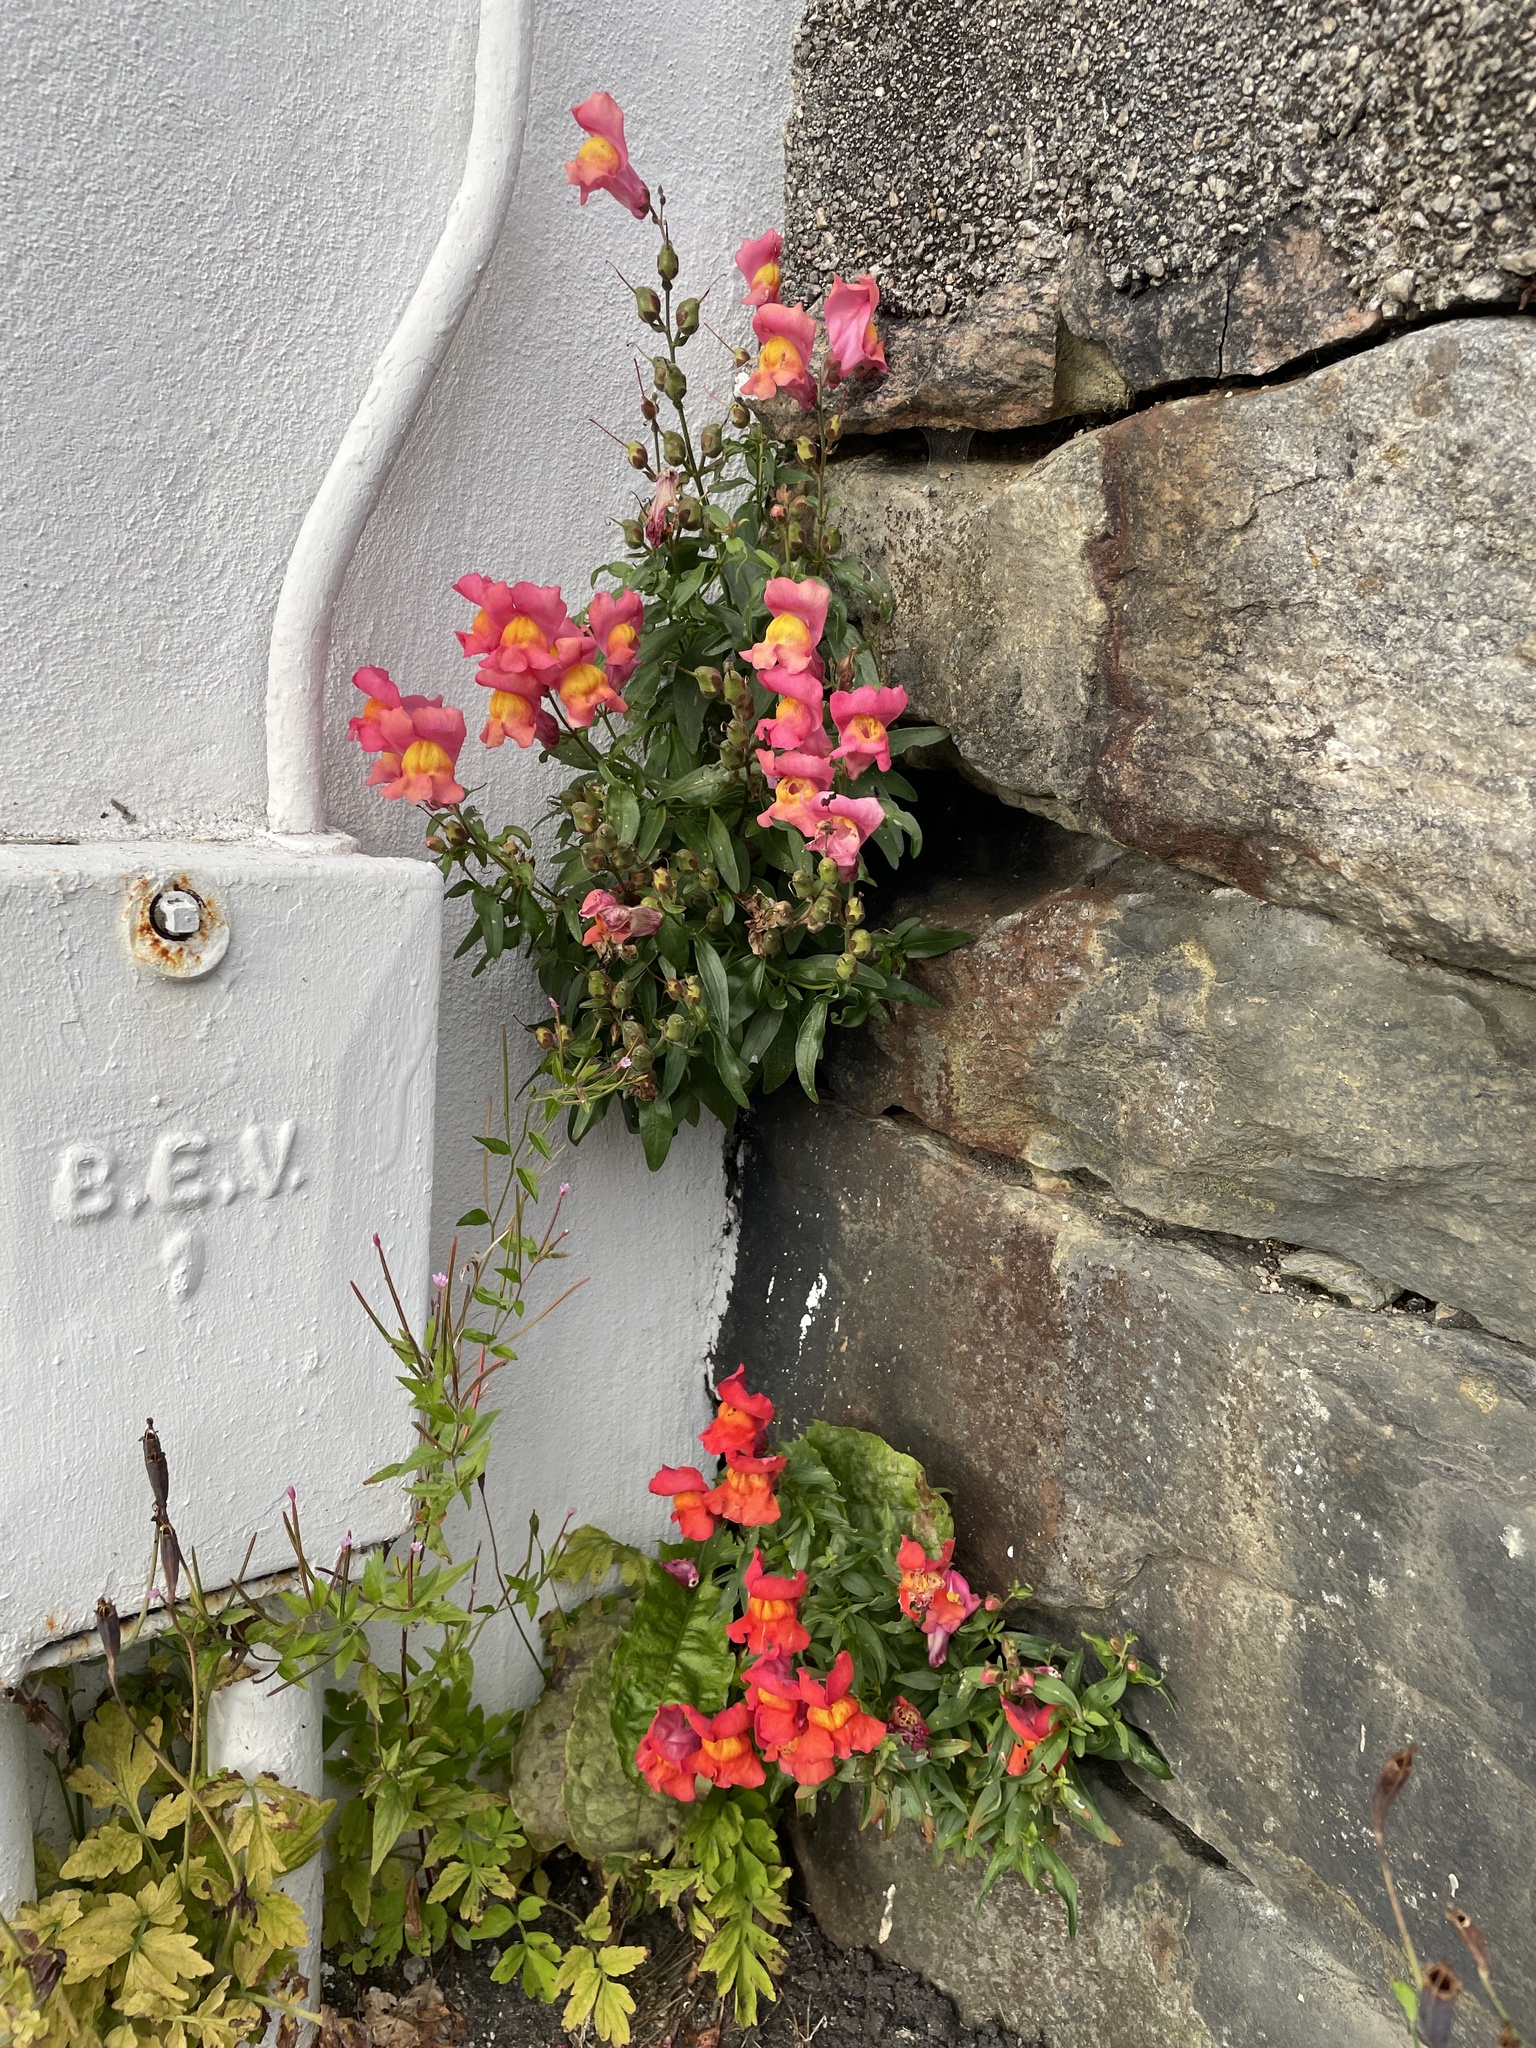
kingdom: Plantae
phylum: Tracheophyta
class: Magnoliopsida
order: Lamiales
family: Plantaginaceae
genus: Antirrhinum
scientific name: Antirrhinum majus
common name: Snapdragon
